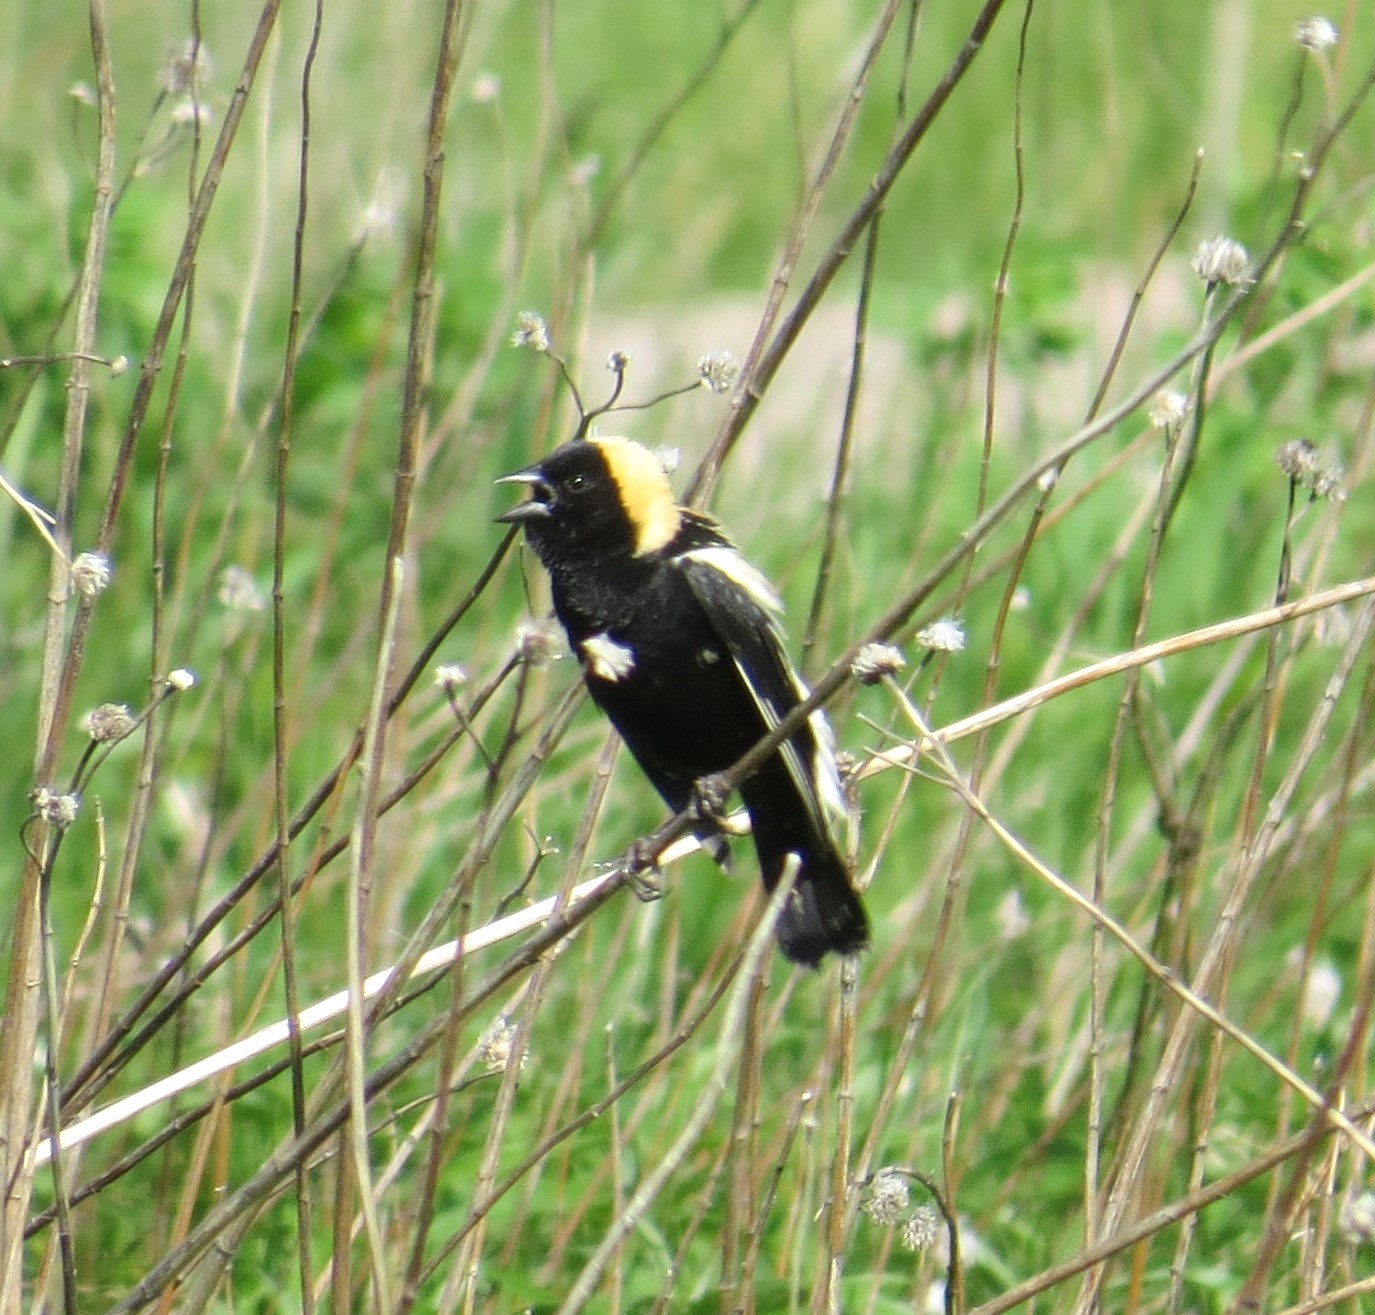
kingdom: Animalia
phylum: Chordata
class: Aves
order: Passeriformes
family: Icteridae
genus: Dolichonyx
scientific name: Dolichonyx oryzivorus
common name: Bobolink
